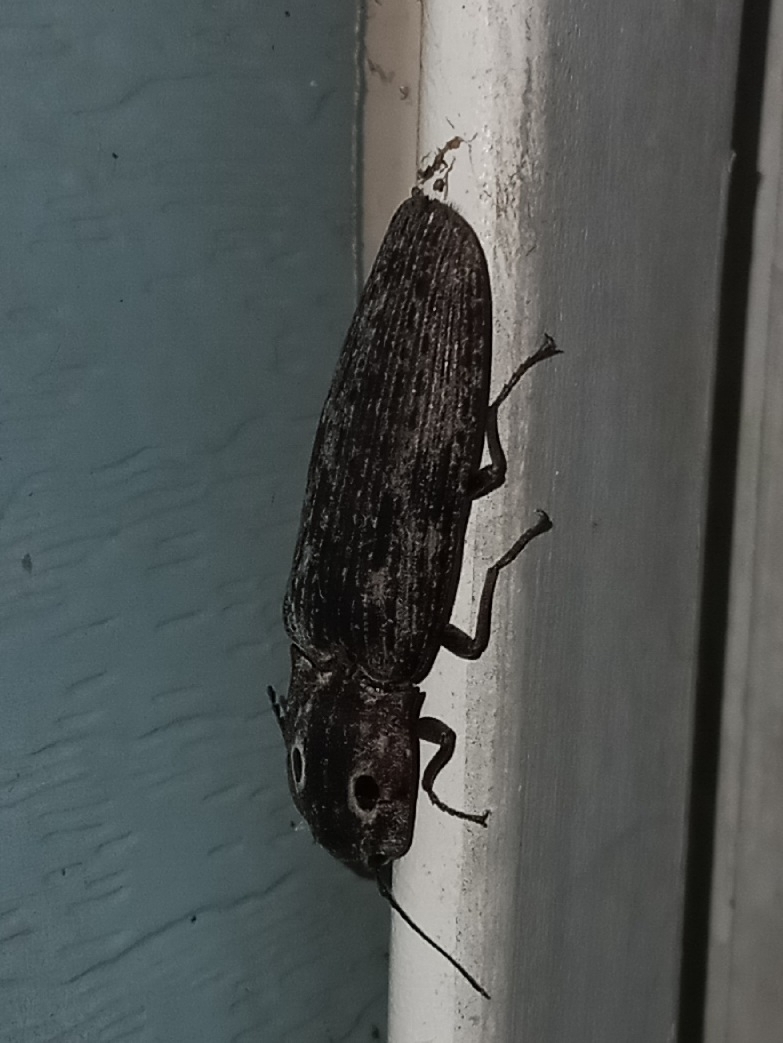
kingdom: Animalia
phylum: Arthropoda
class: Insecta
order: Coleoptera
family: Elateridae
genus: Alaus
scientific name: Alaus myops
